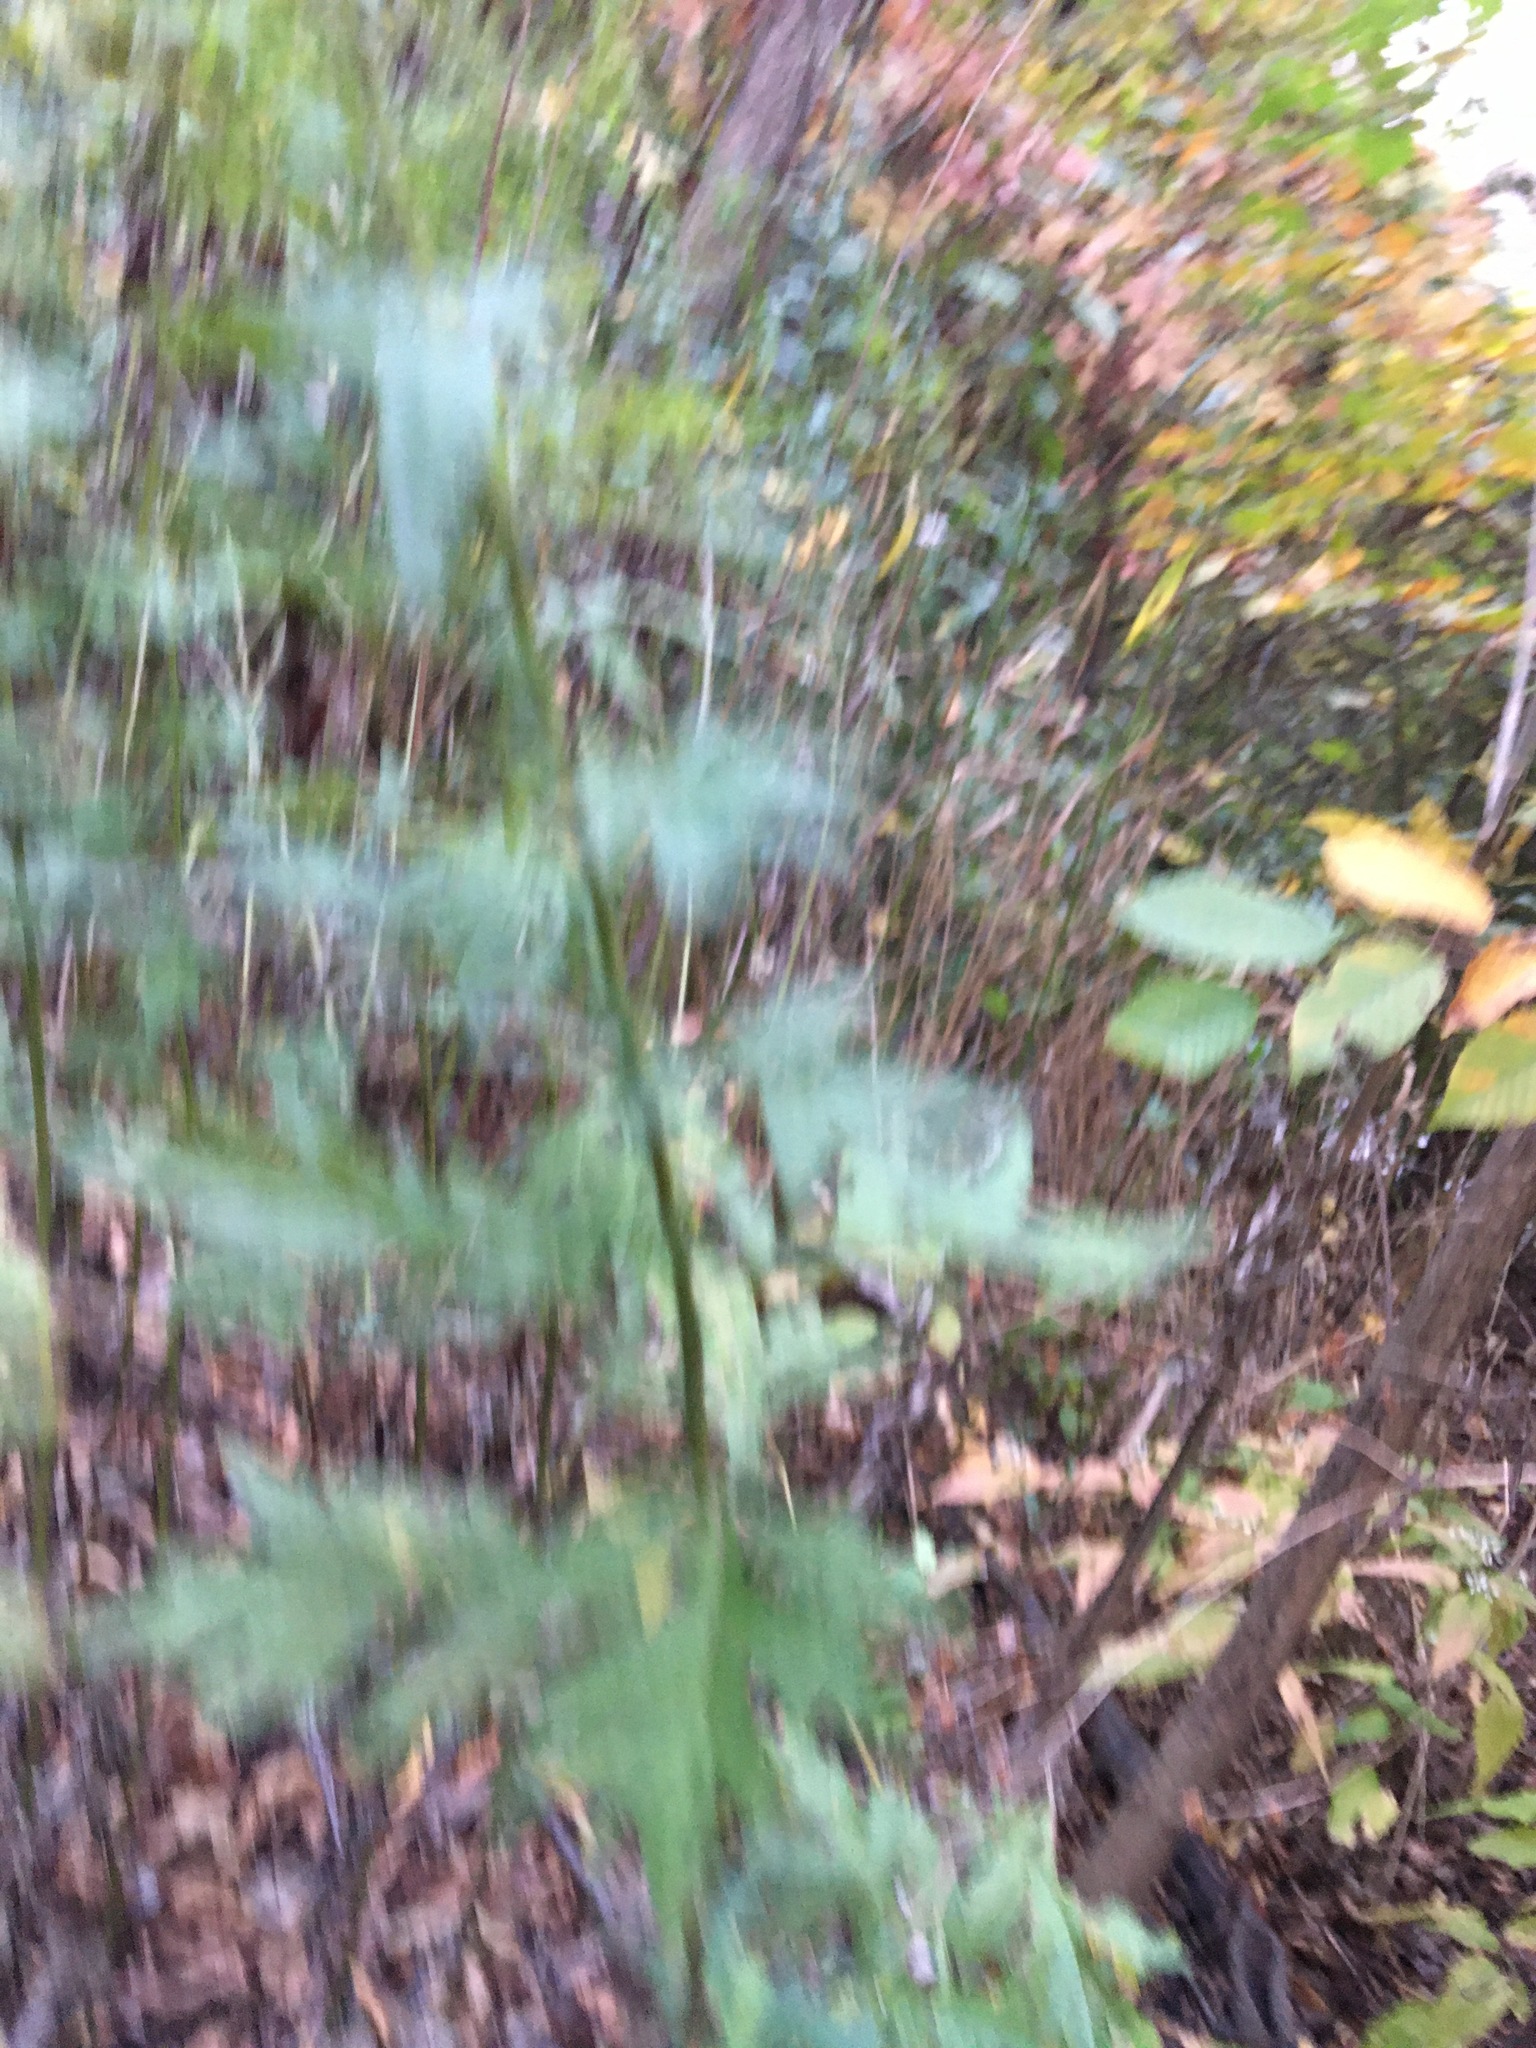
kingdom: Plantae
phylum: Tracheophyta
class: Magnoliopsida
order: Asterales
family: Asteraceae
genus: Artemisia
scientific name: Artemisia vulgaris
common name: Mugwort
